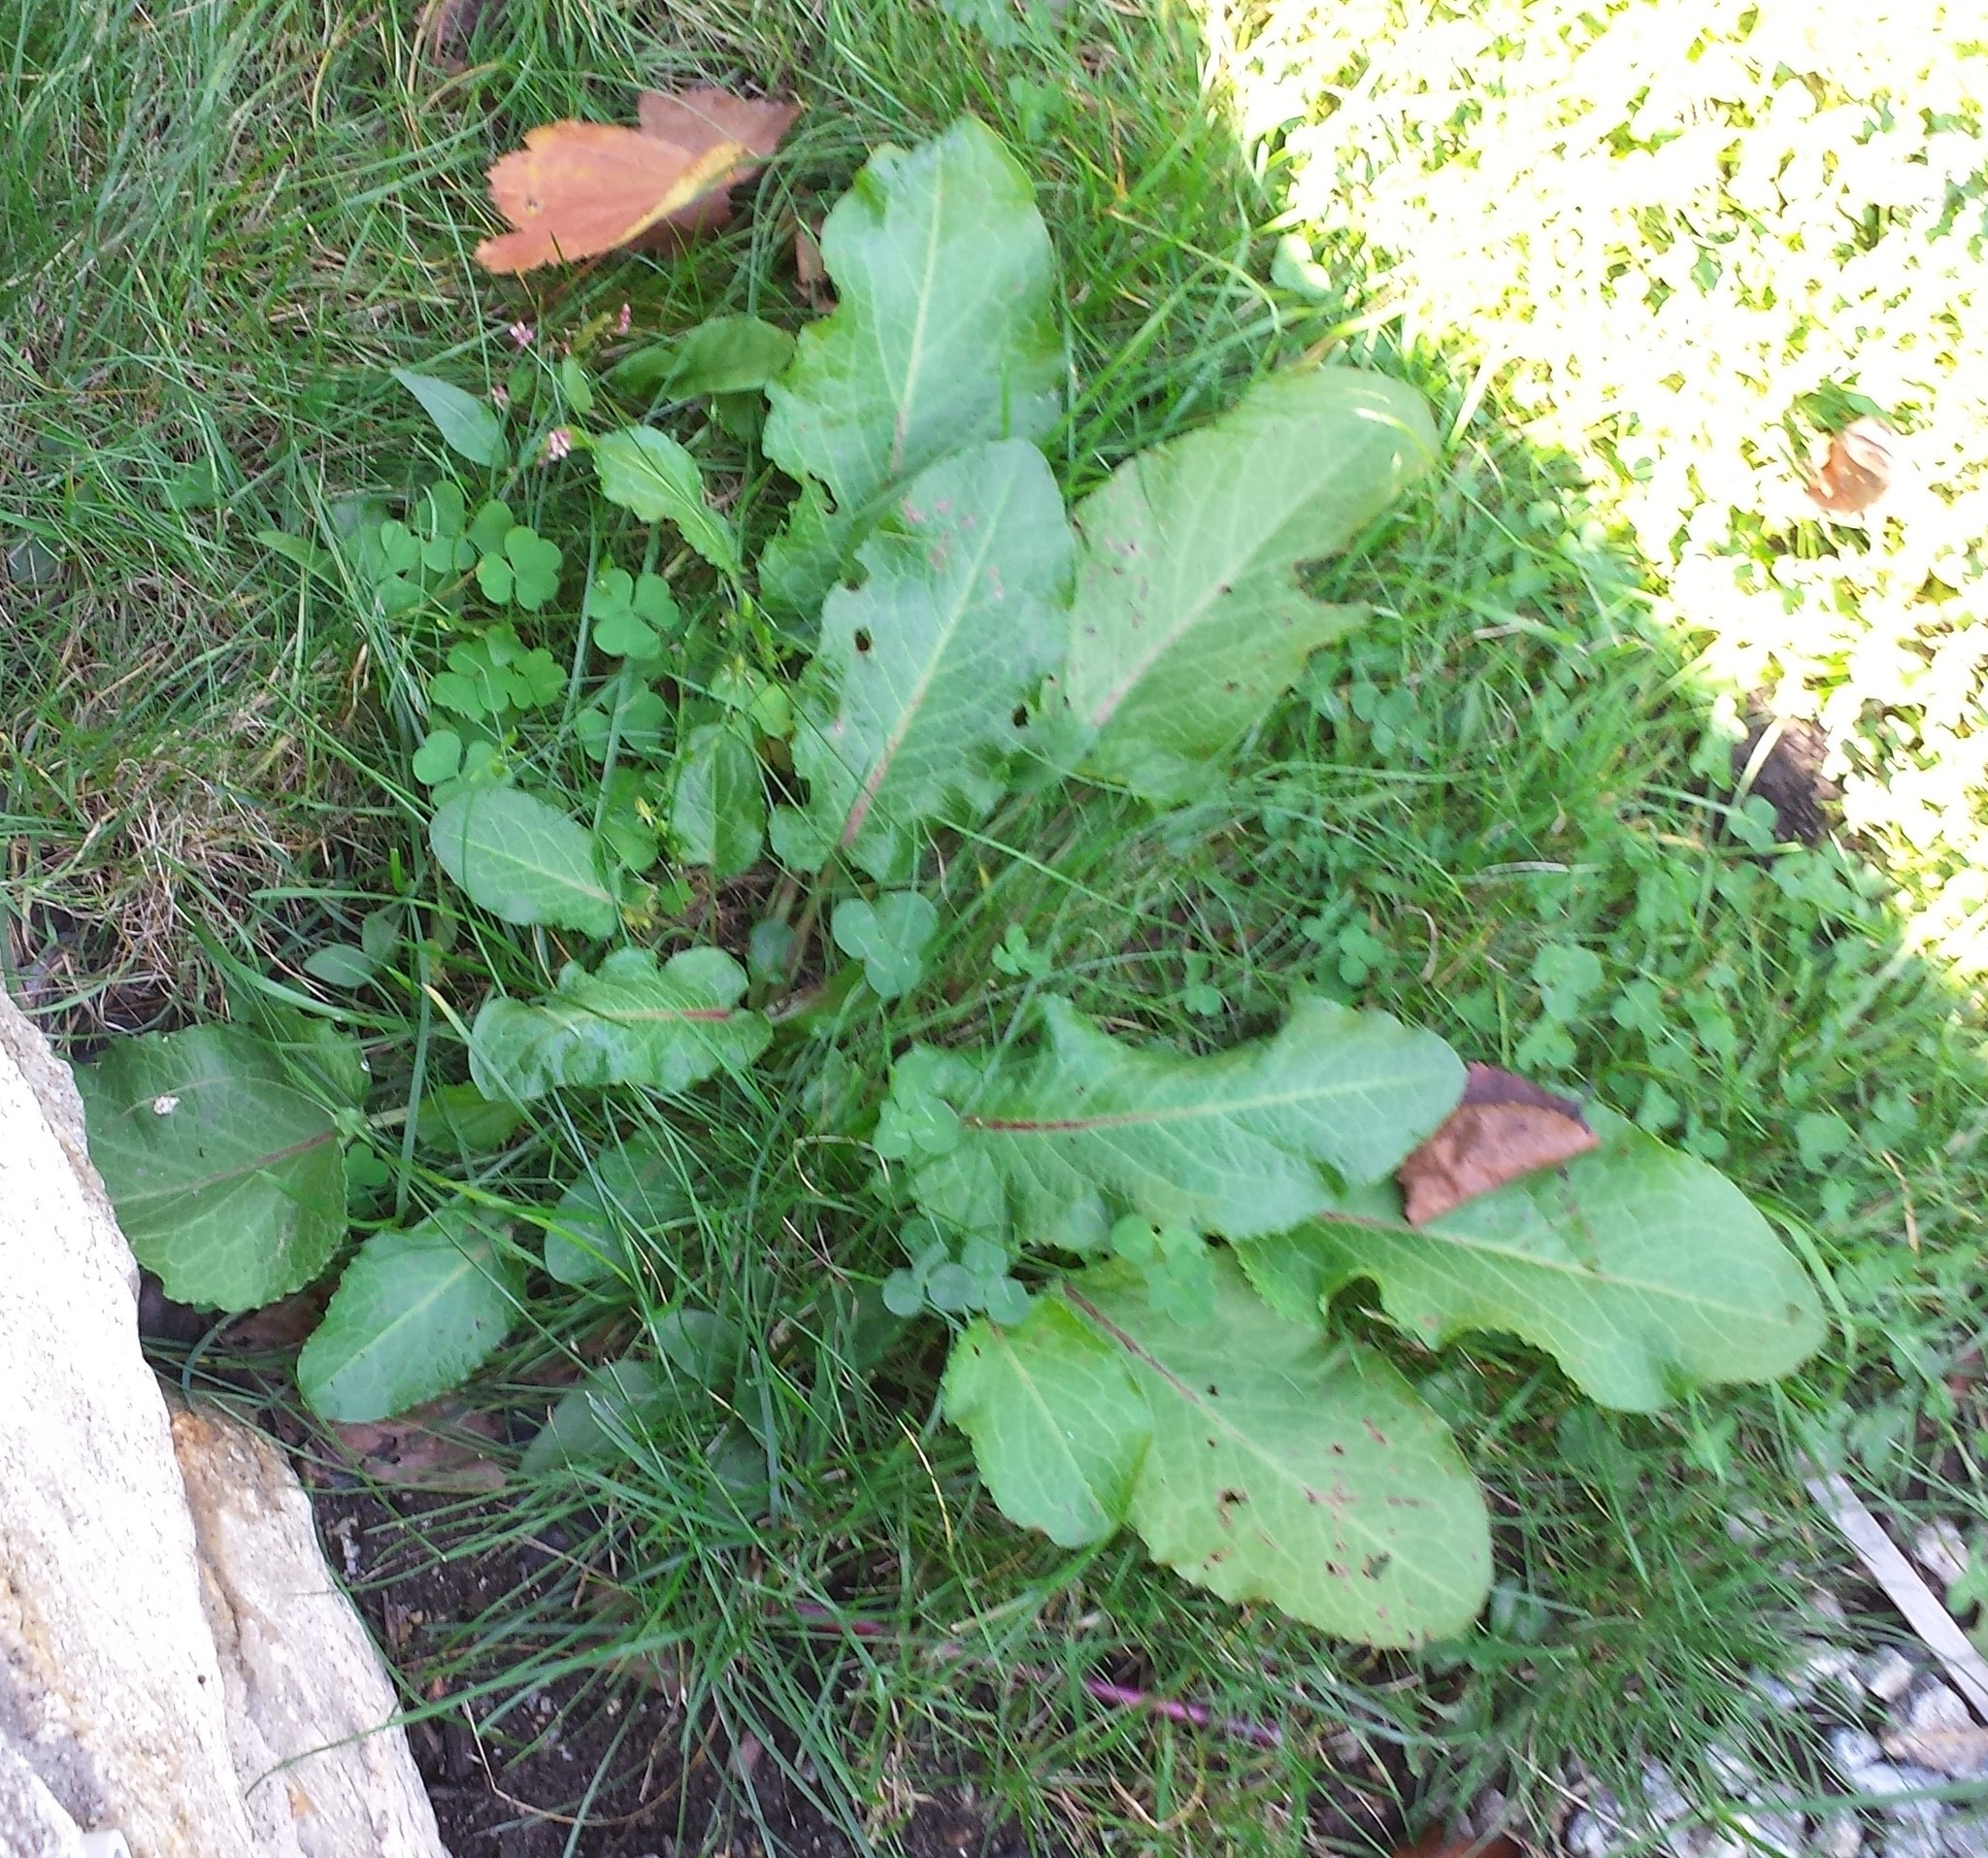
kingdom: Plantae
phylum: Tracheophyta
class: Magnoliopsida
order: Caryophyllales
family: Polygonaceae
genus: Rumex
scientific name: Rumex obtusifolius
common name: Bitter dock
